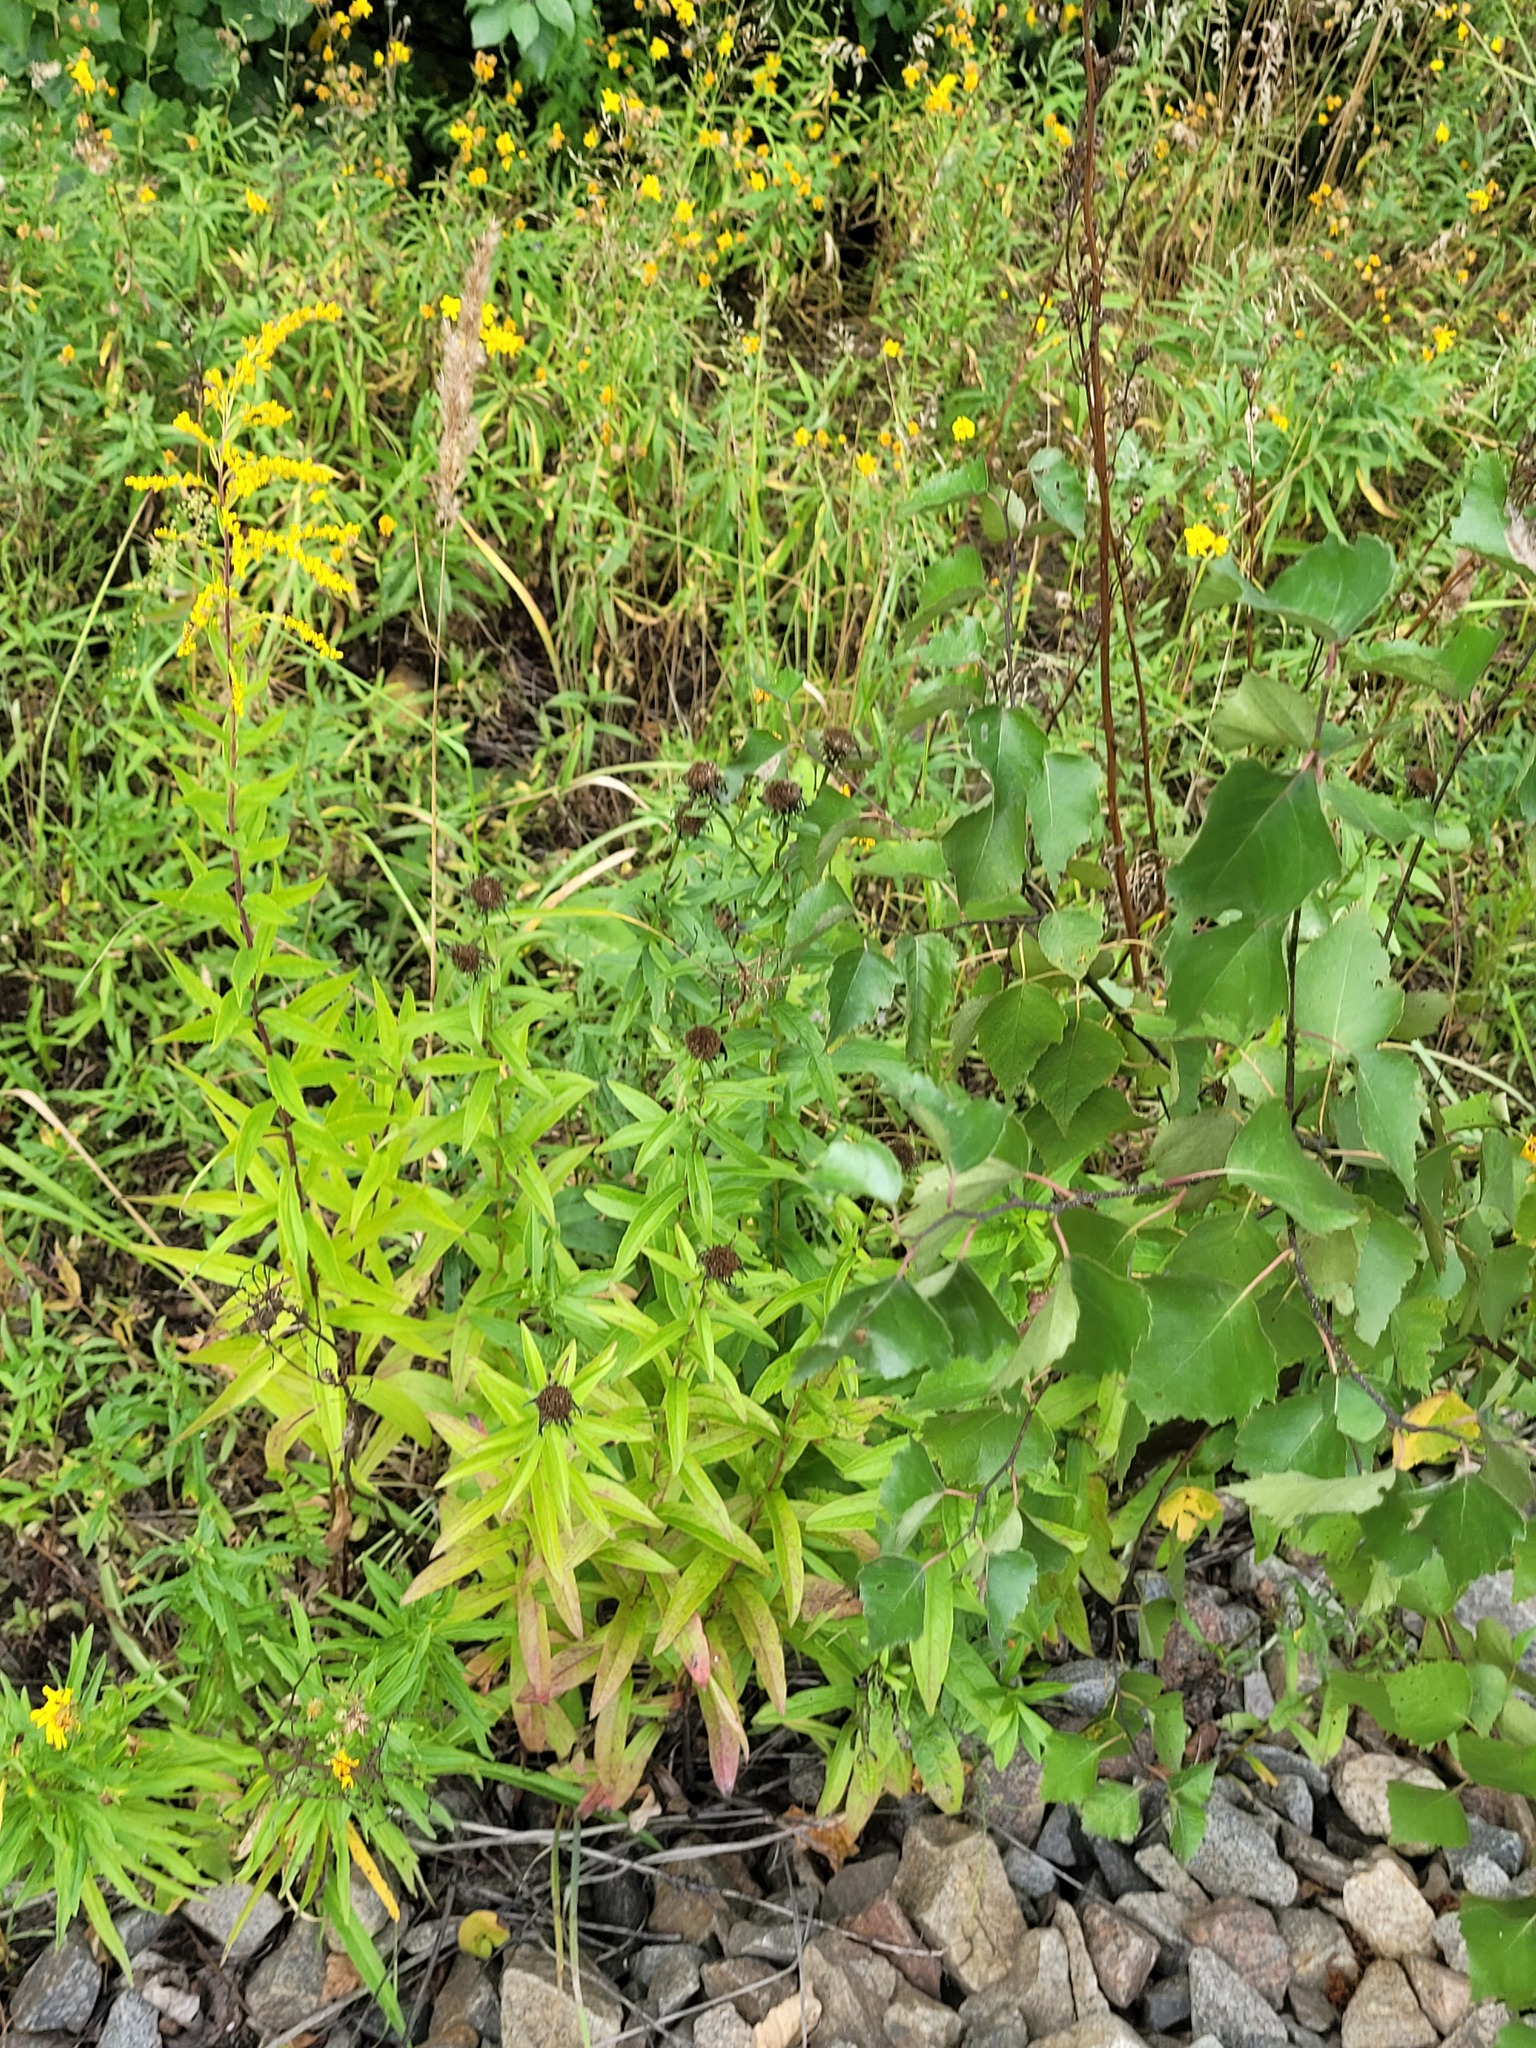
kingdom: Plantae
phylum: Tracheophyta
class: Magnoliopsida
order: Asterales
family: Asteraceae
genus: Pentanema
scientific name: Pentanema salicinum
